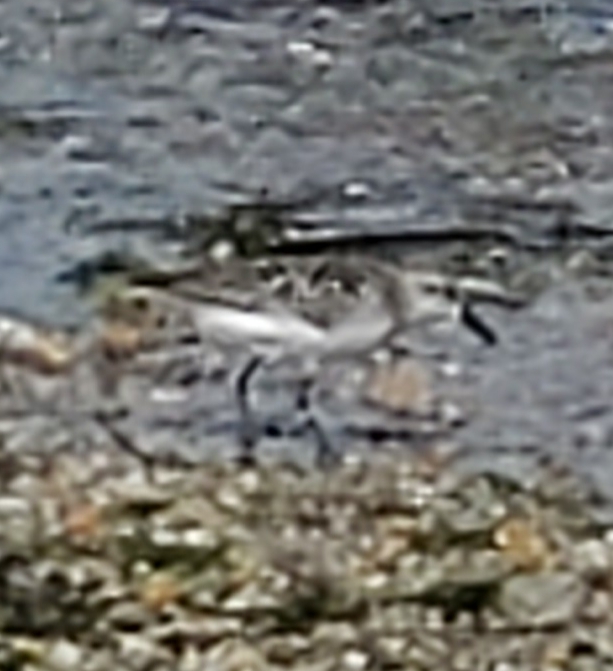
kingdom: Animalia
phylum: Chordata
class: Aves
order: Charadriiformes
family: Scolopacidae
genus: Calidris
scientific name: Calidris pusilla
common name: Semipalmated sandpiper
